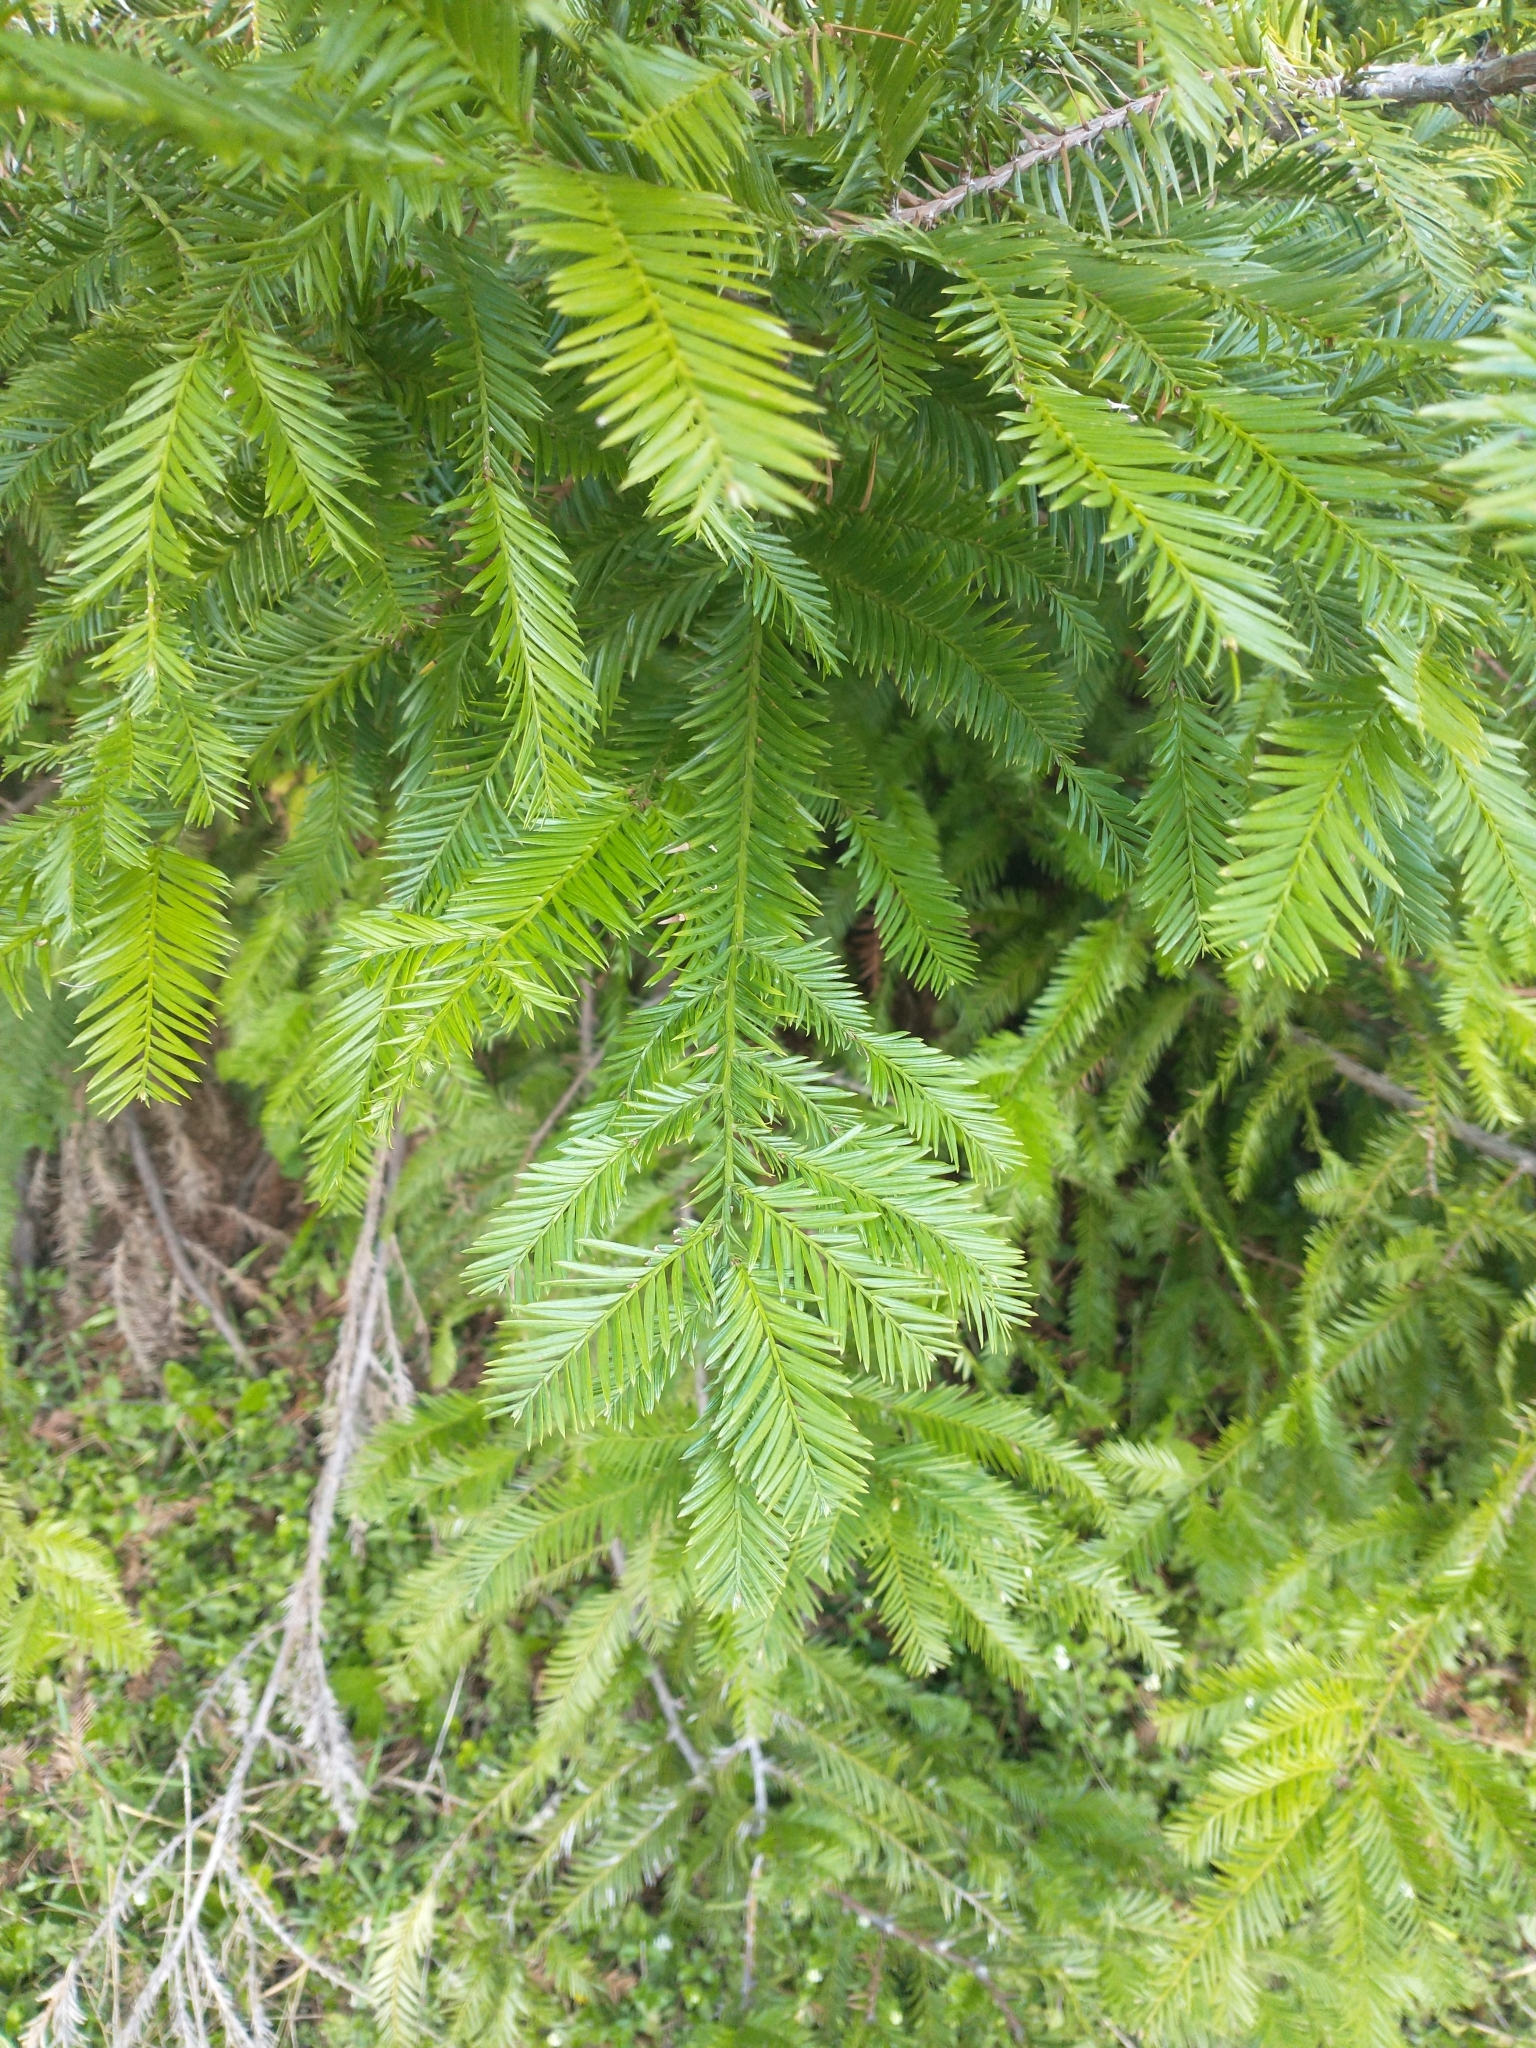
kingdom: Plantae
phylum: Tracheophyta
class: Pinopsida
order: Pinales
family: Cupressaceae
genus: Sequoia
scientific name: Sequoia sempervirens
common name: Coast redwood
